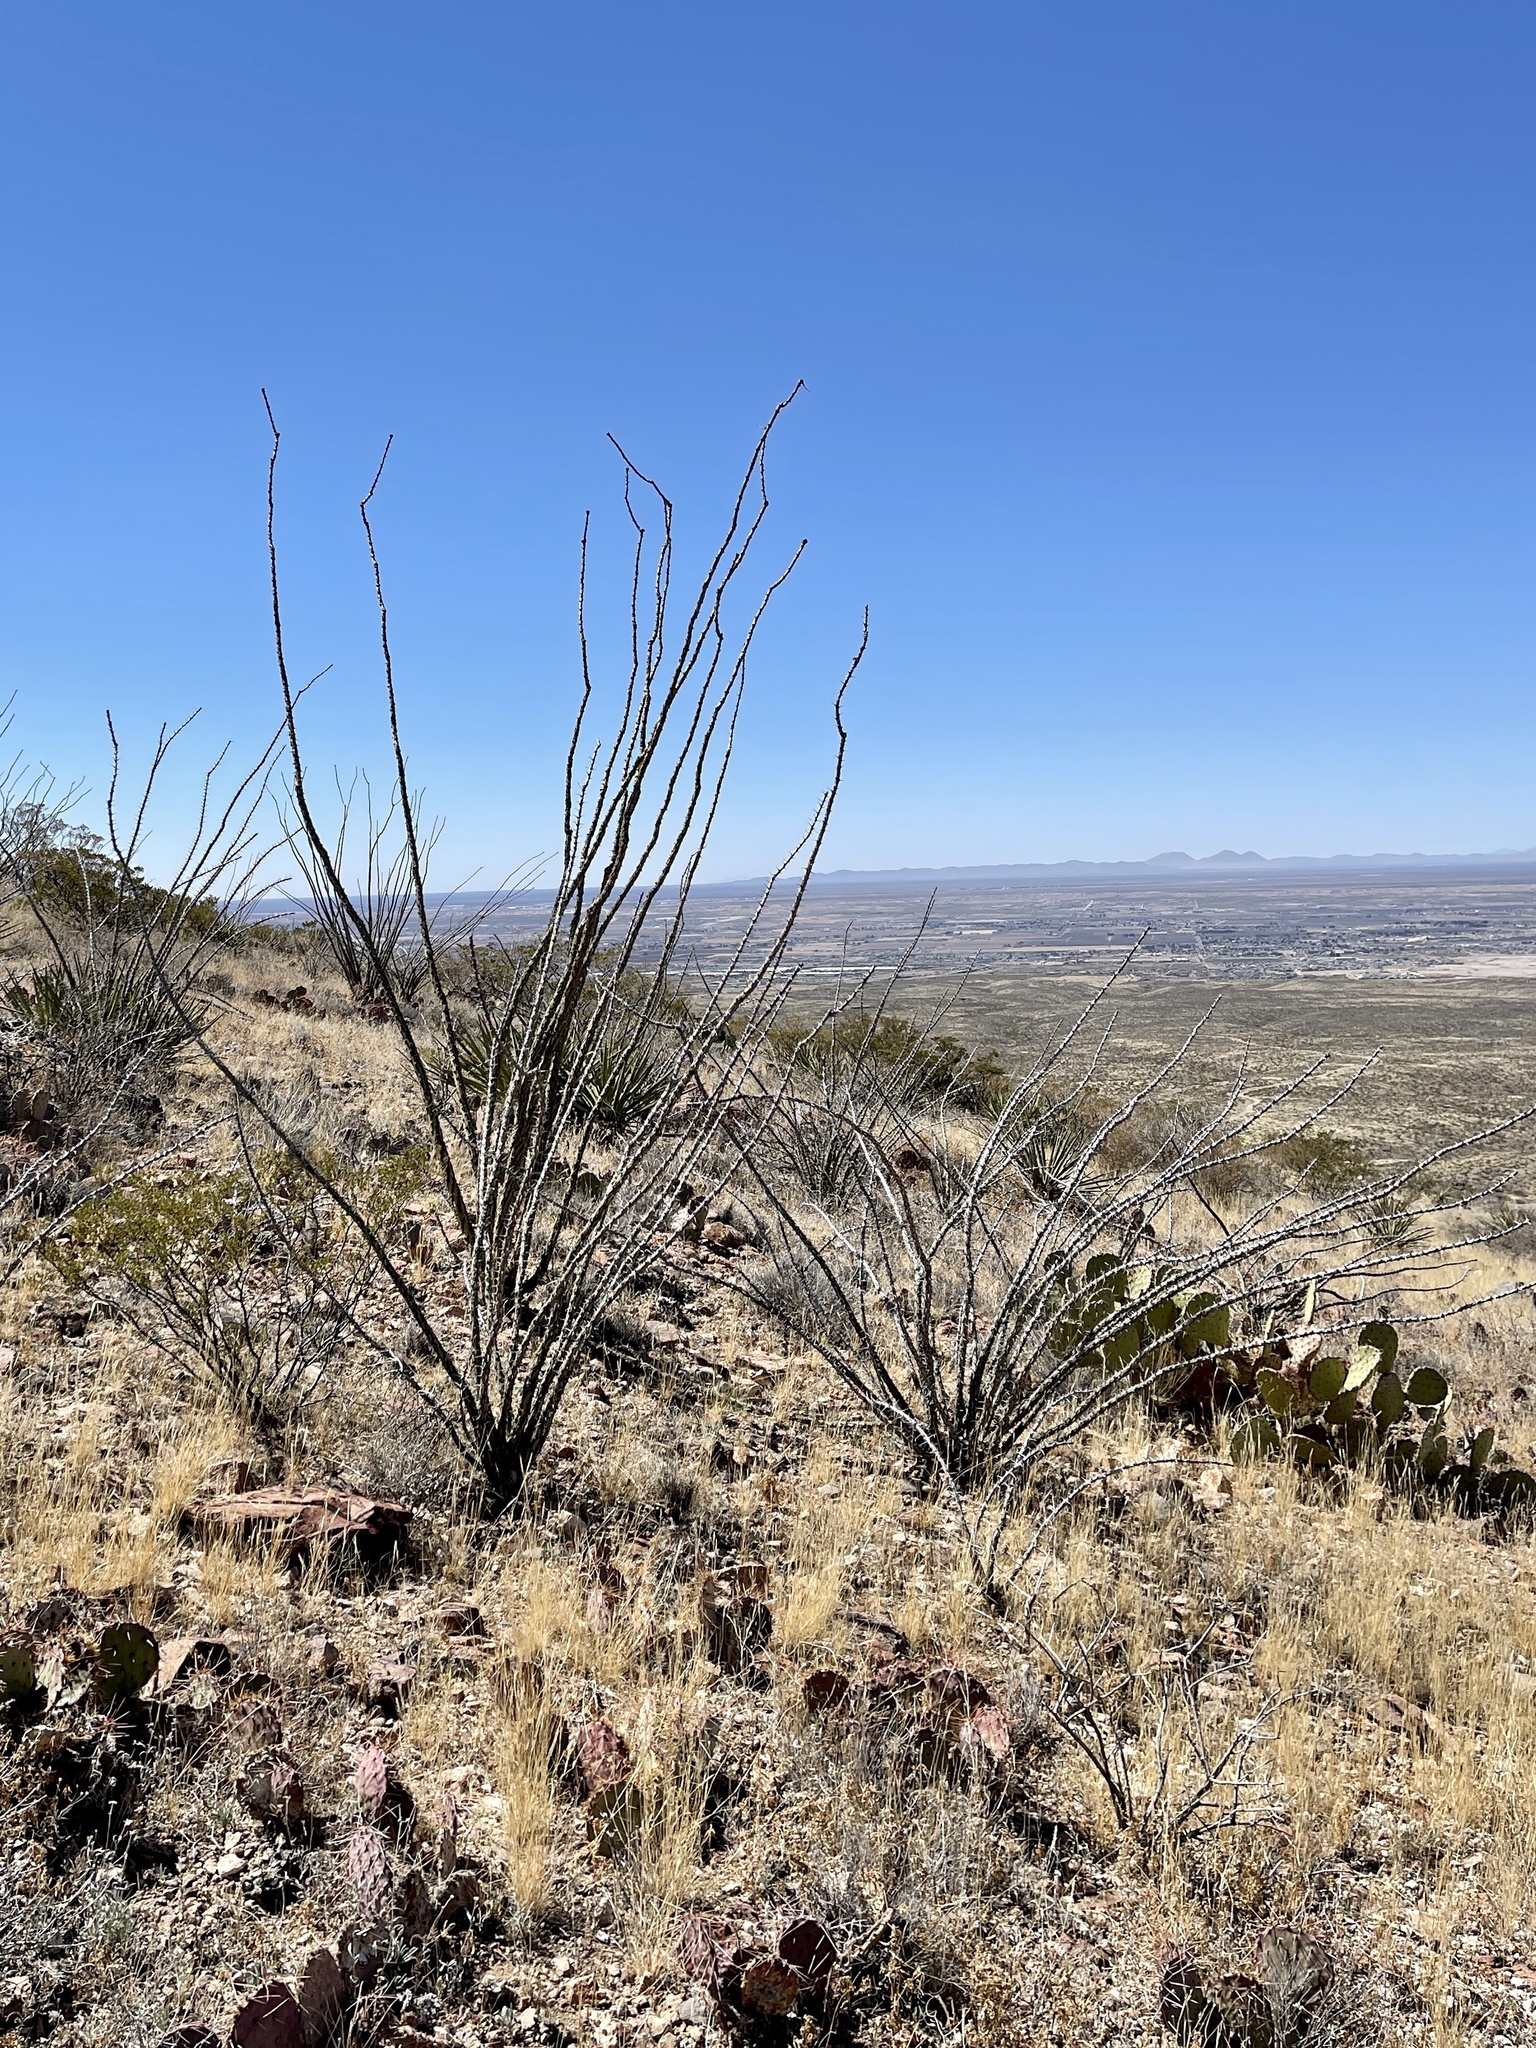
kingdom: Plantae
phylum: Tracheophyta
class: Magnoliopsida
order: Ericales
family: Fouquieriaceae
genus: Fouquieria
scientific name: Fouquieria splendens
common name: Vine-cactus
